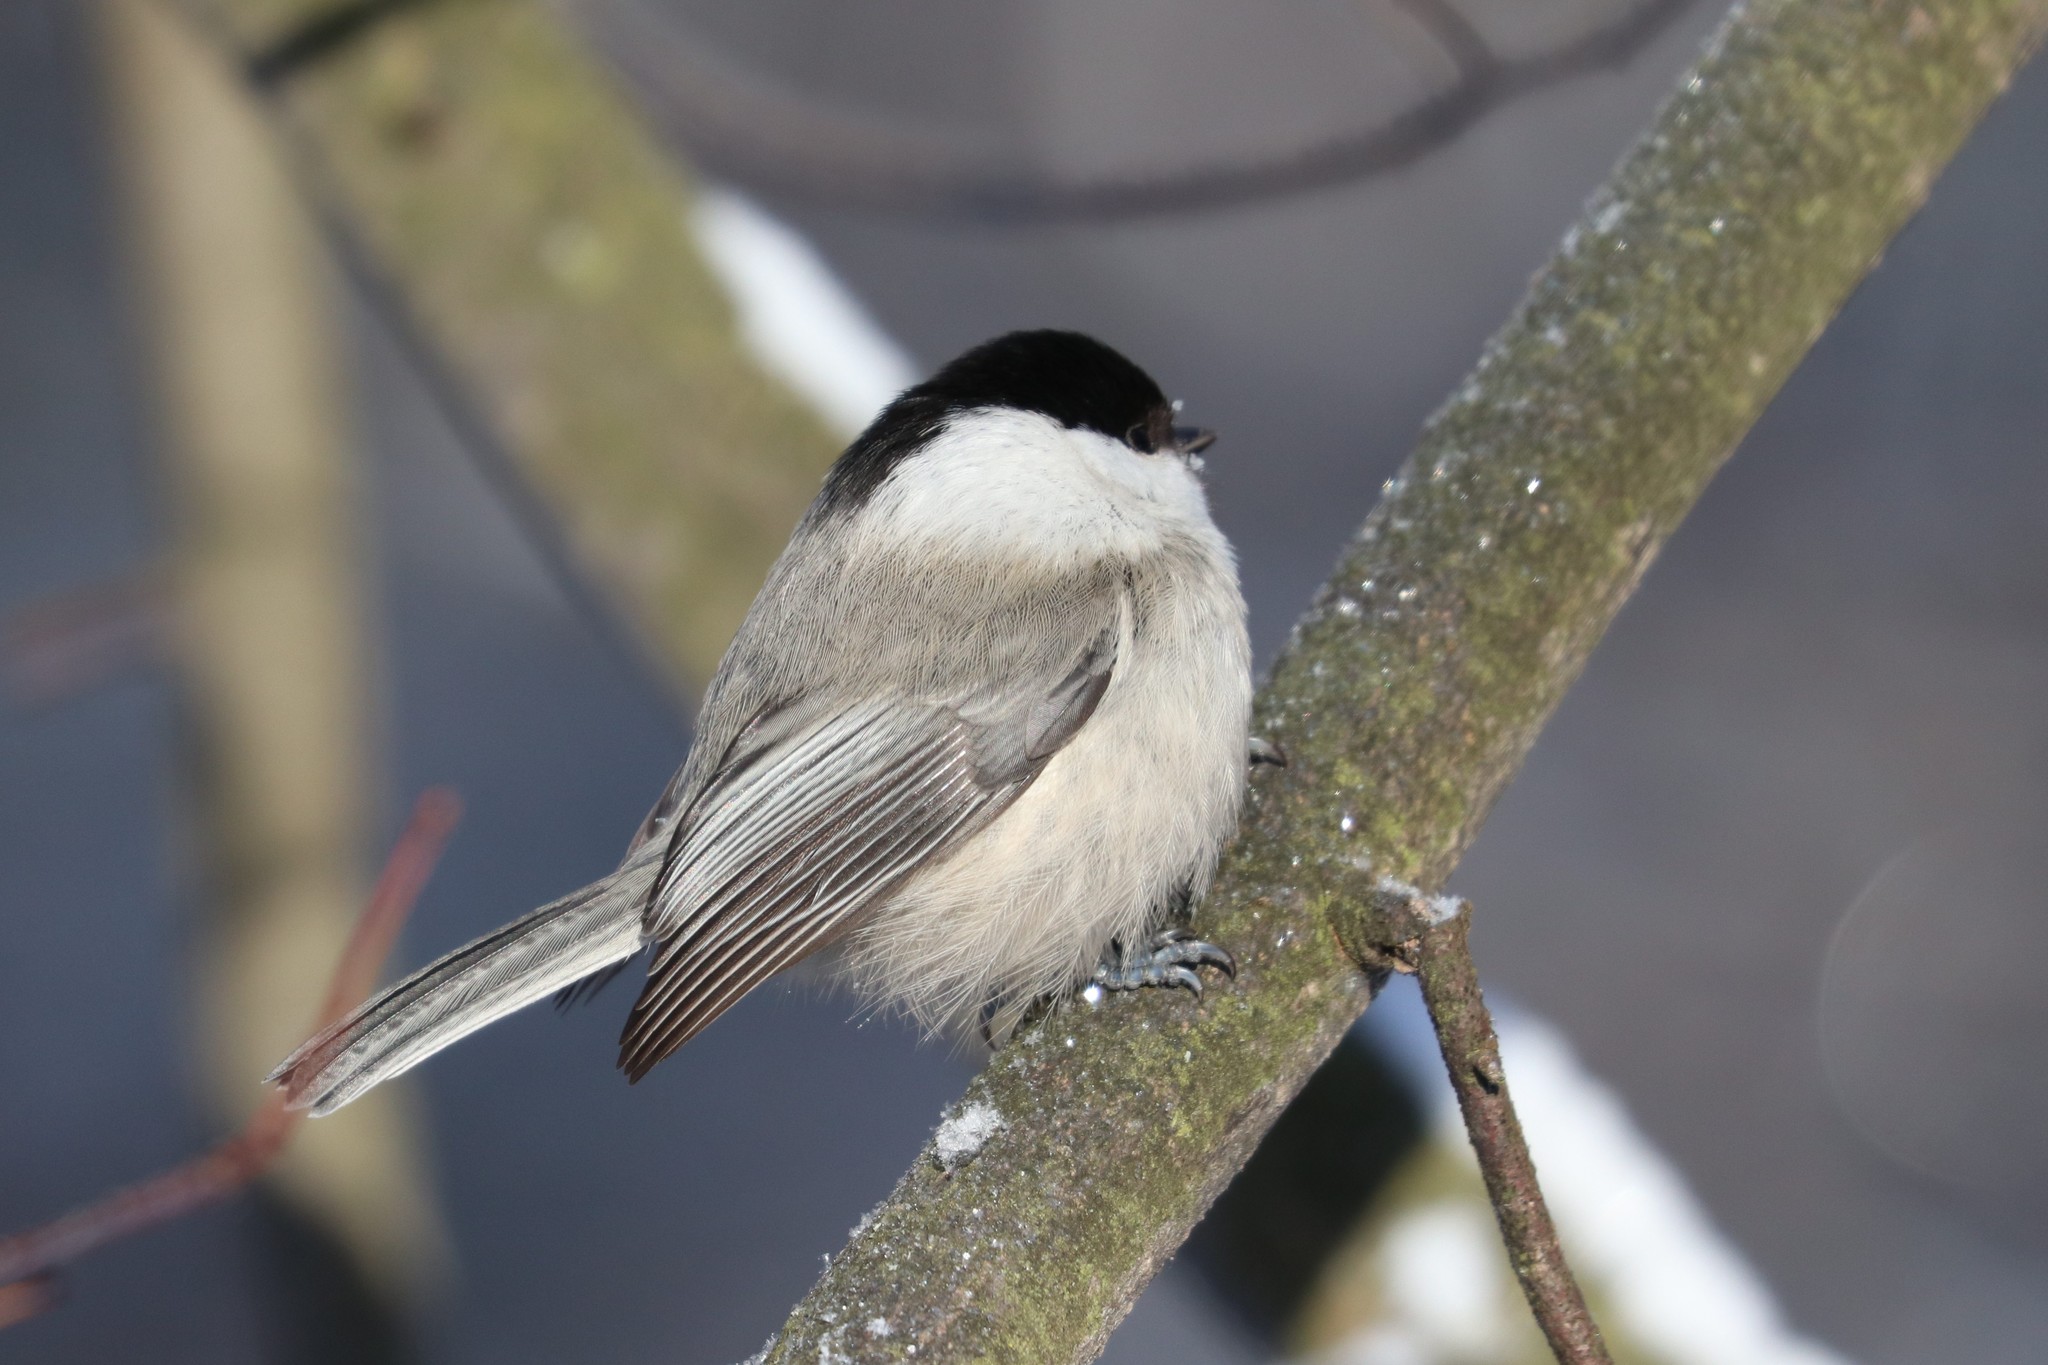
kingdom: Animalia
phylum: Chordata
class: Aves
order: Passeriformes
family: Paridae
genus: Poecile
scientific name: Poecile montanus
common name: Willow tit
